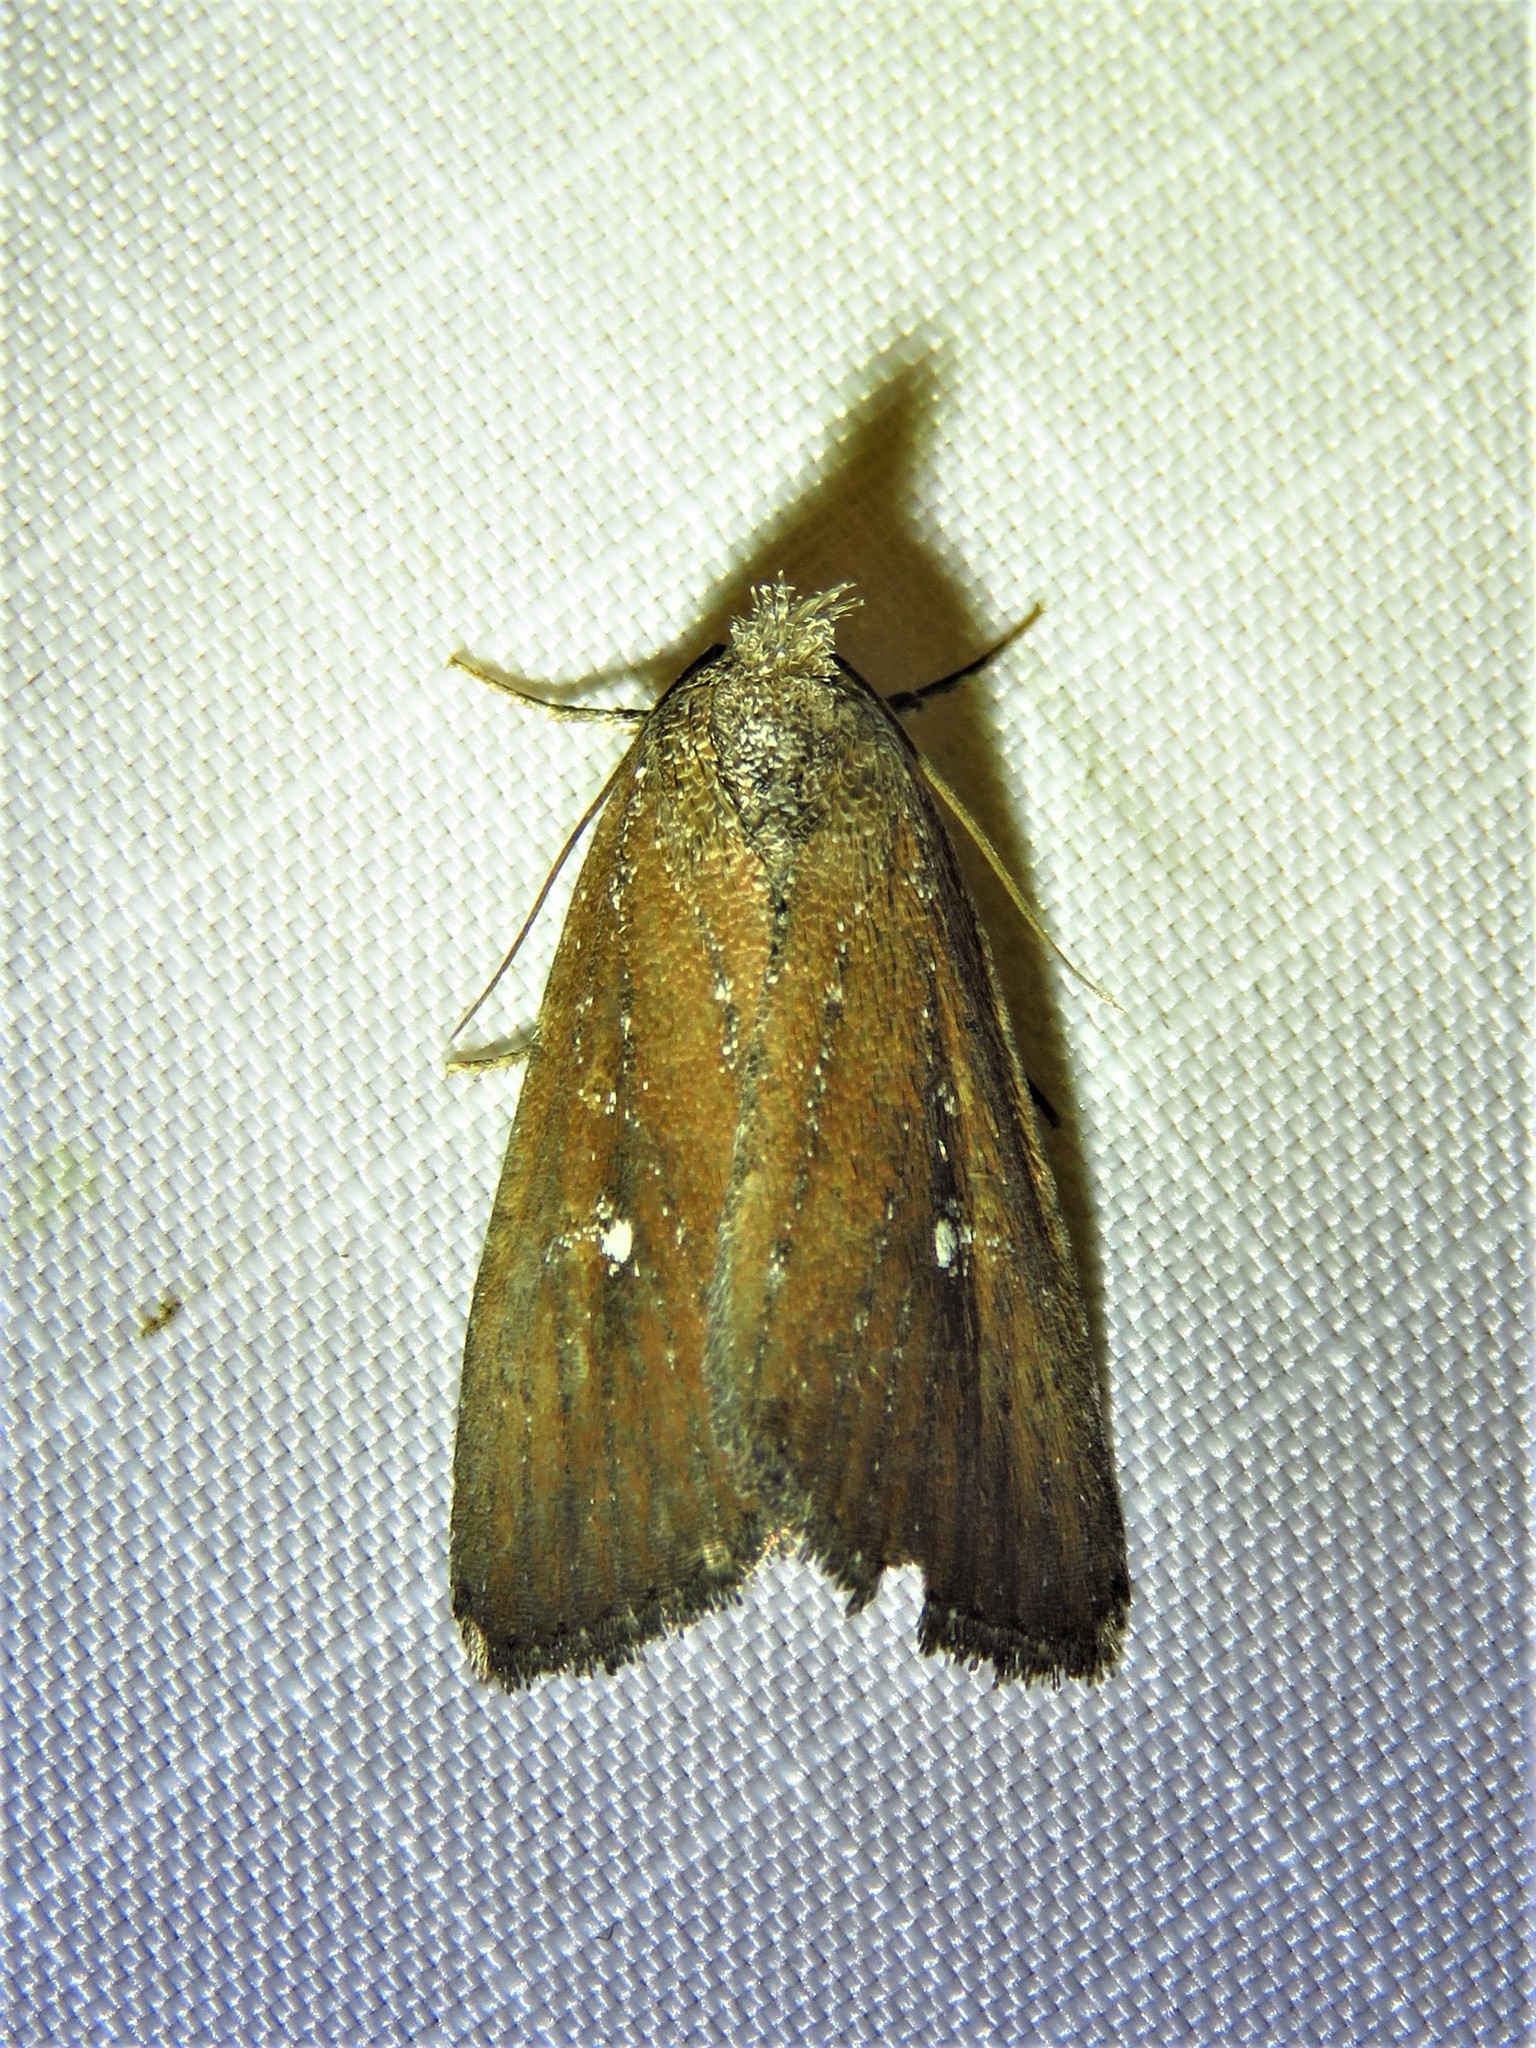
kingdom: Animalia
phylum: Arthropoda
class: Insecta
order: Lepidoptera
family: Noctuidae
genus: Condica
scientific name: Condica videns
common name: White-dotted groundling
